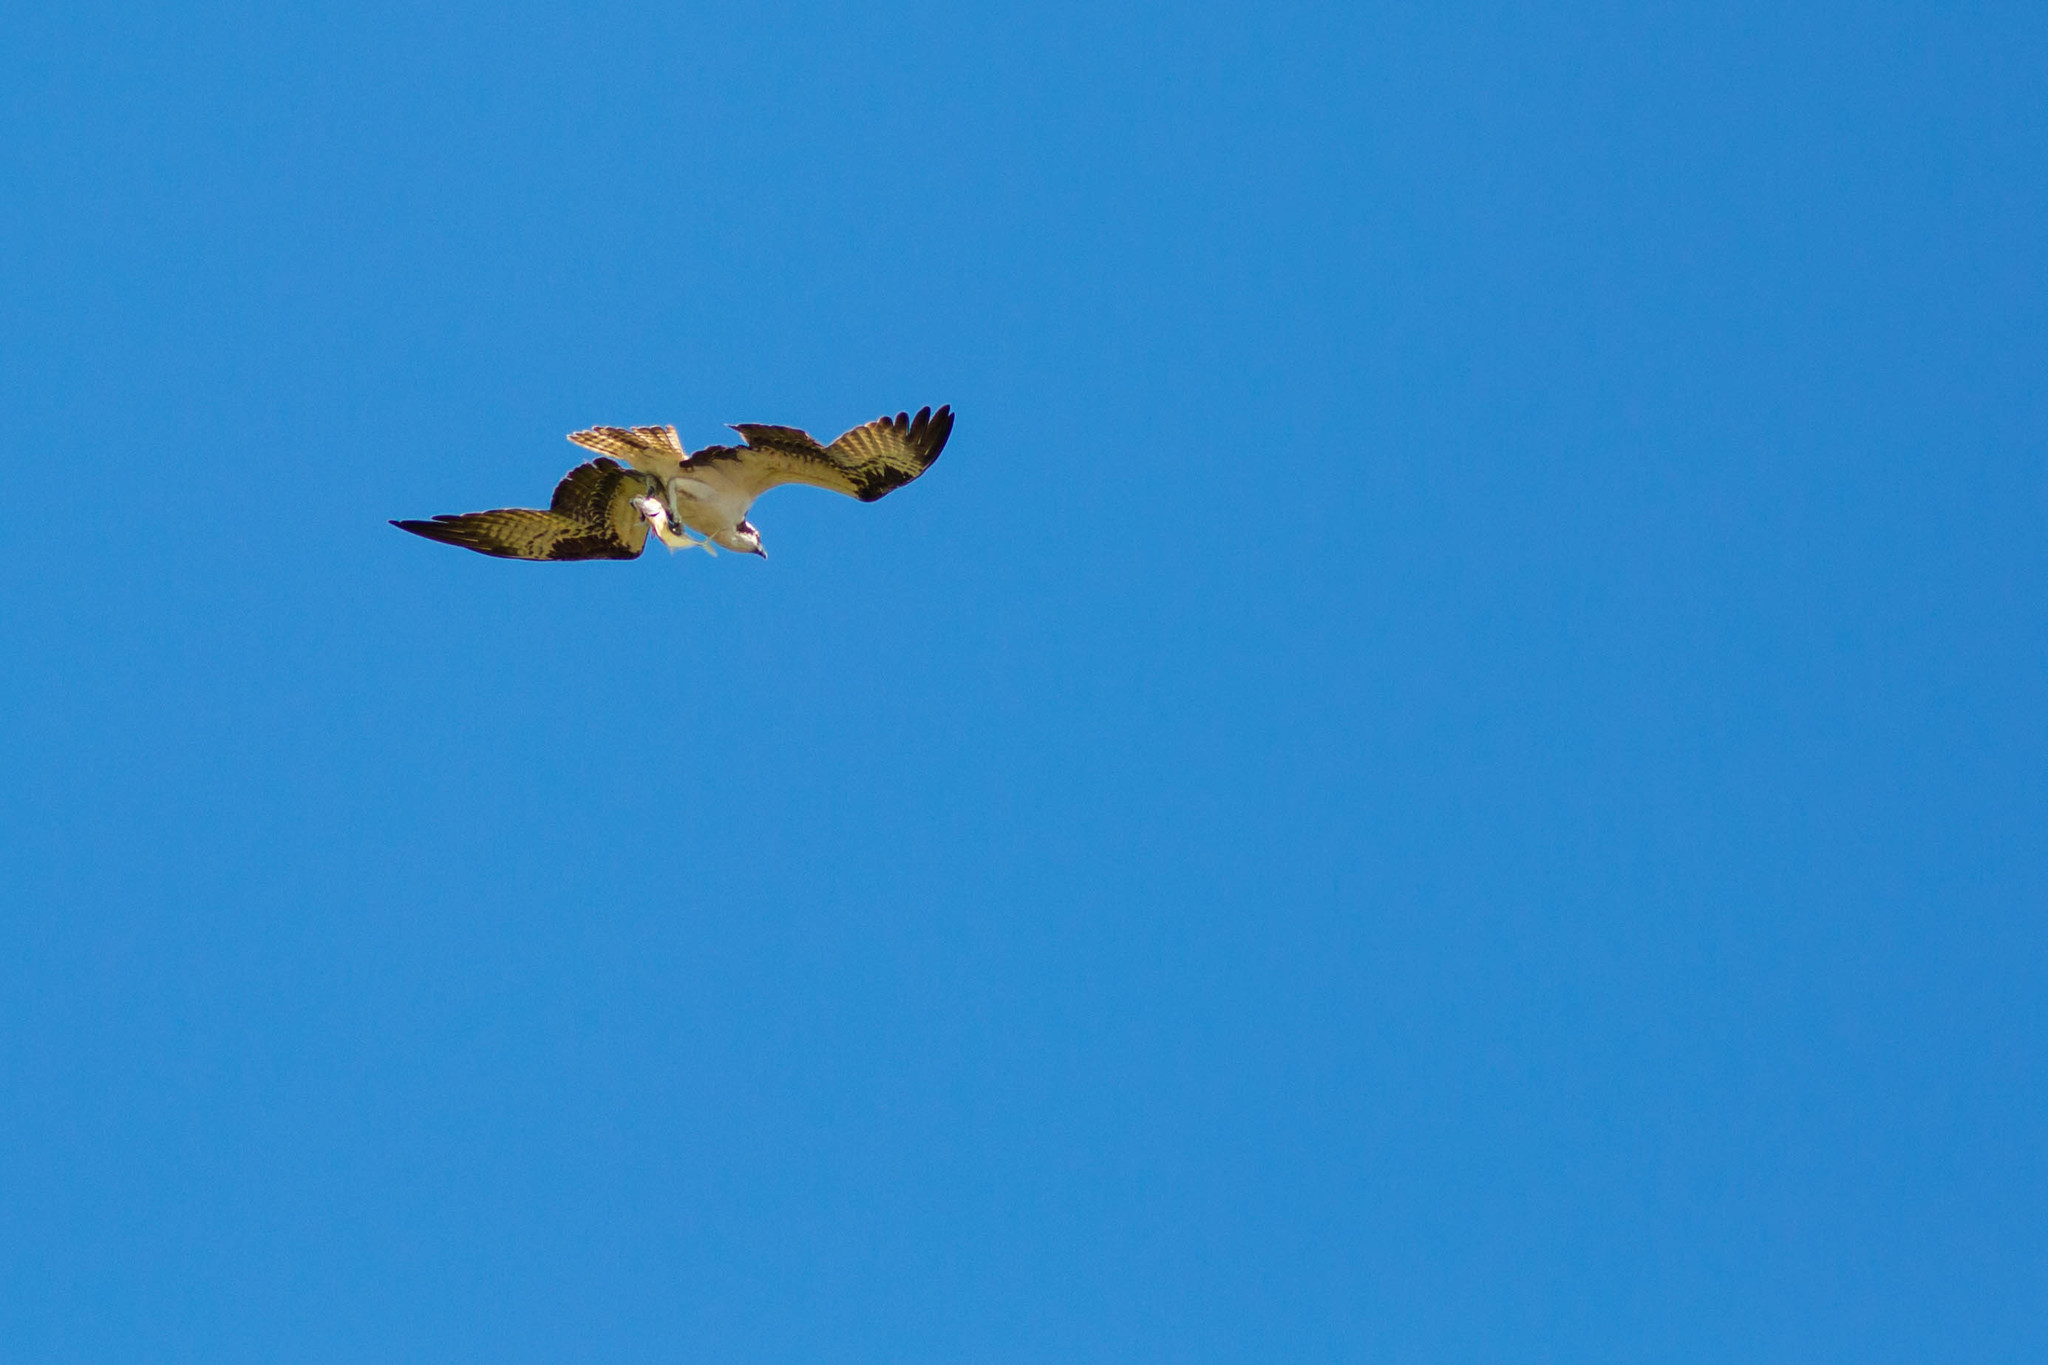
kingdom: Animalia
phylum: Chordata
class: Aves
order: Accipitriformes
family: Pandionidae
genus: Pandion
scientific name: Pandion haliaetus
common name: Osprey
